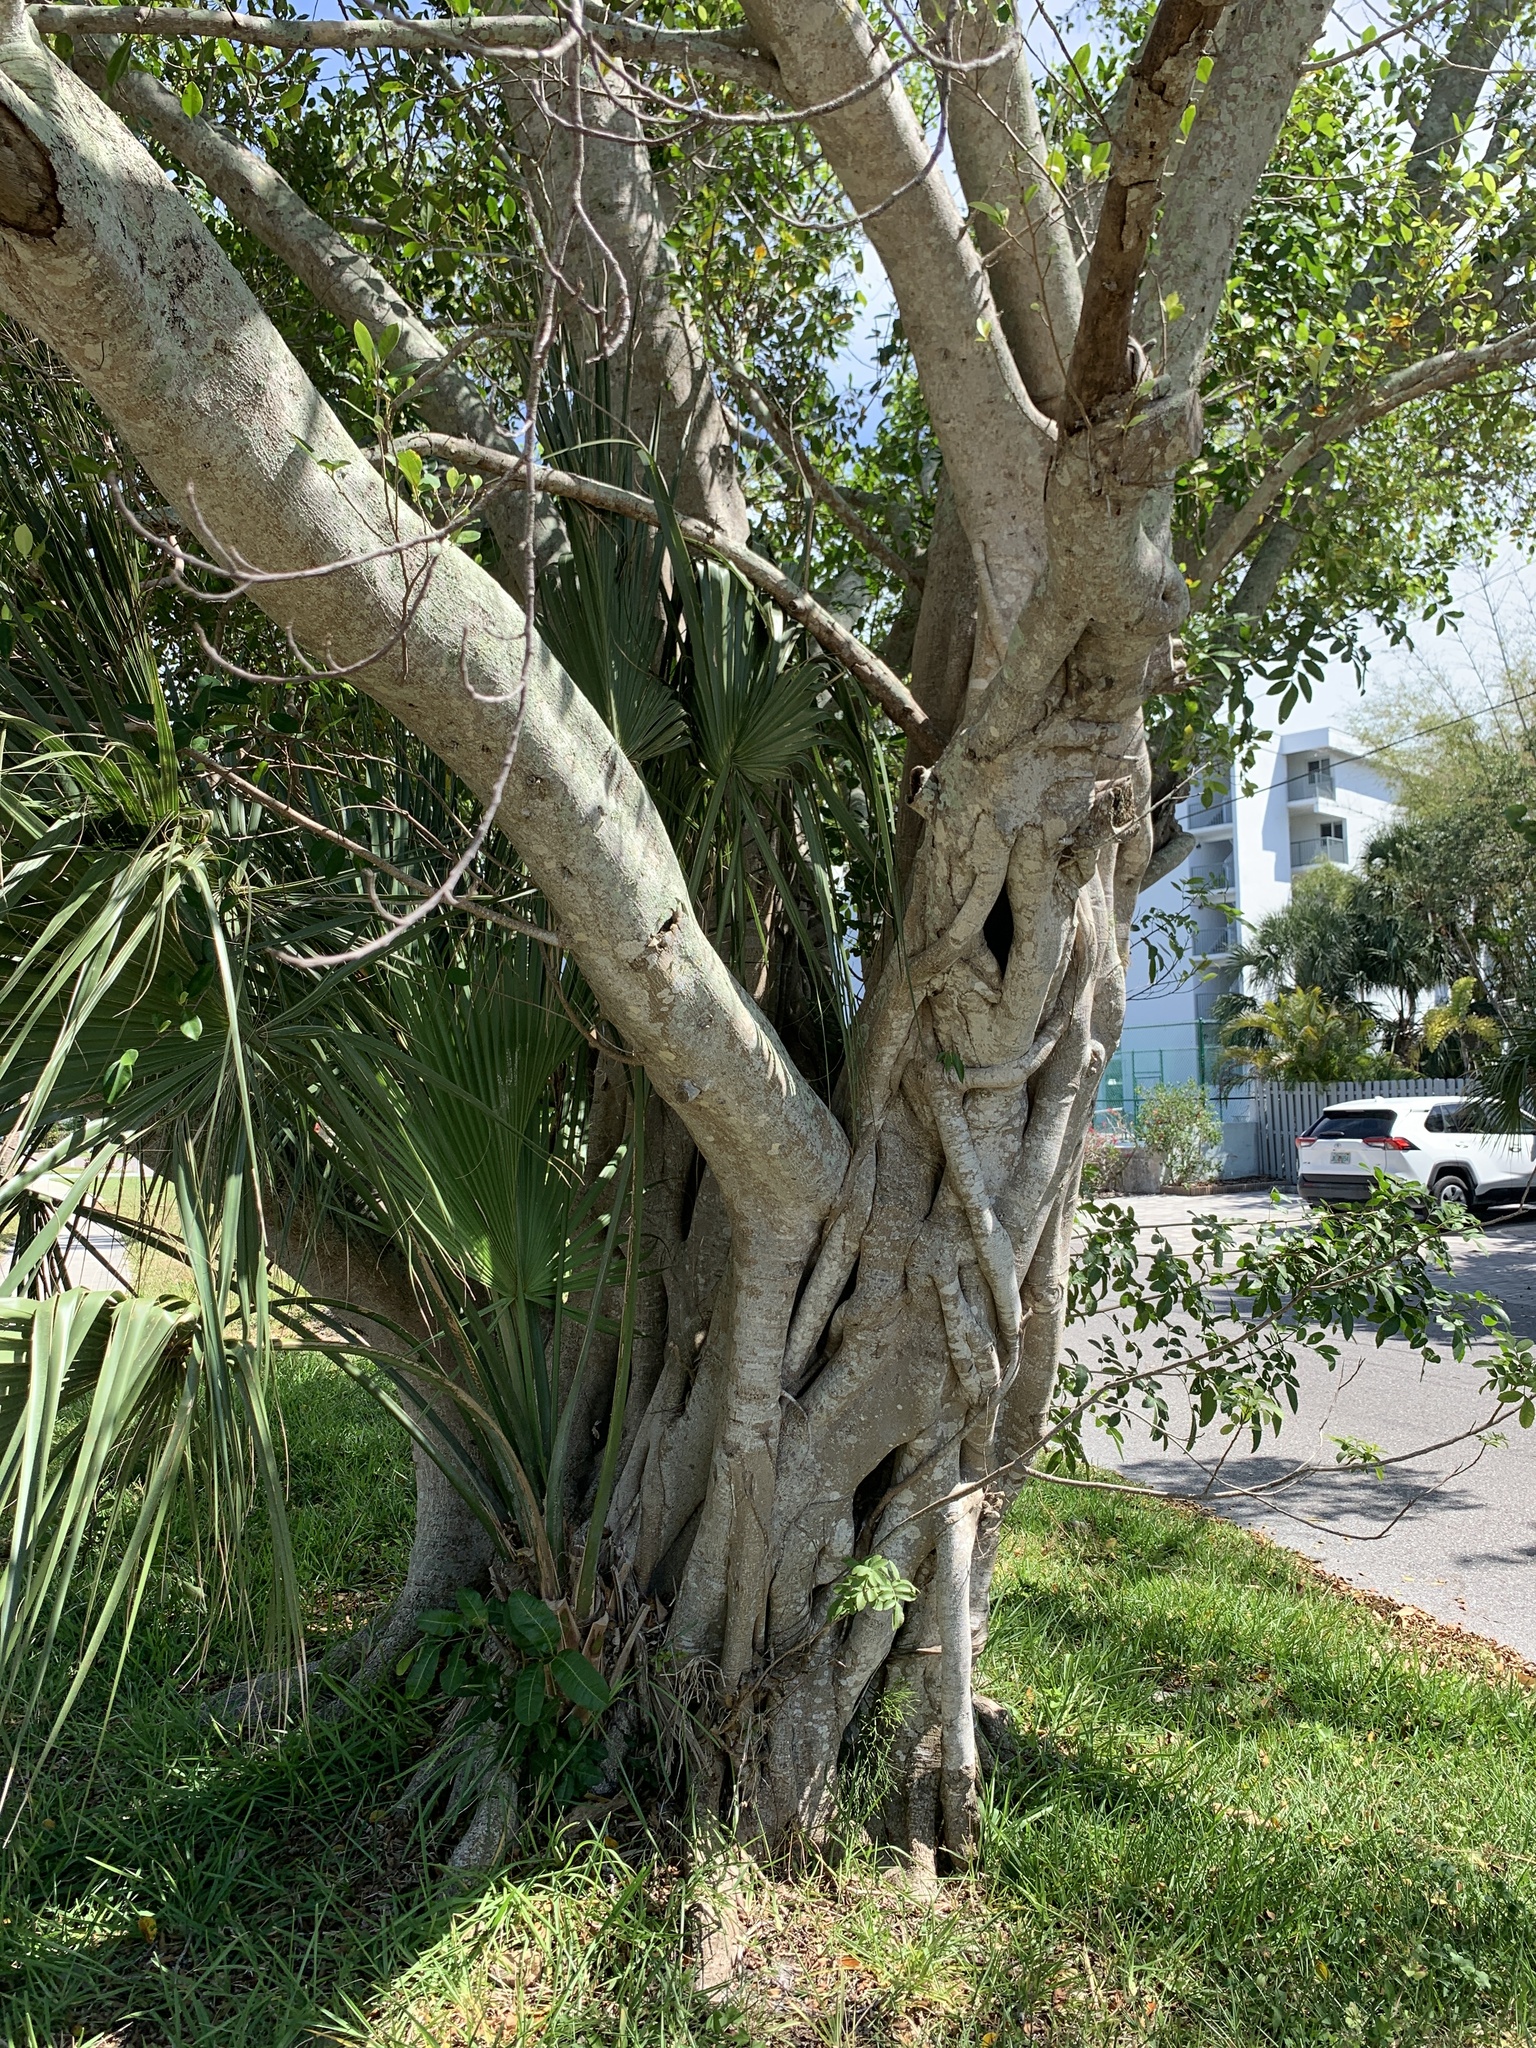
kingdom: Plantae
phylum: Tracheophyta
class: Polypodiopsida
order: Psilotales
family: Psilotaceae
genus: Psilotum
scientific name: Psilotum nudum
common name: Skeleton fork fern
